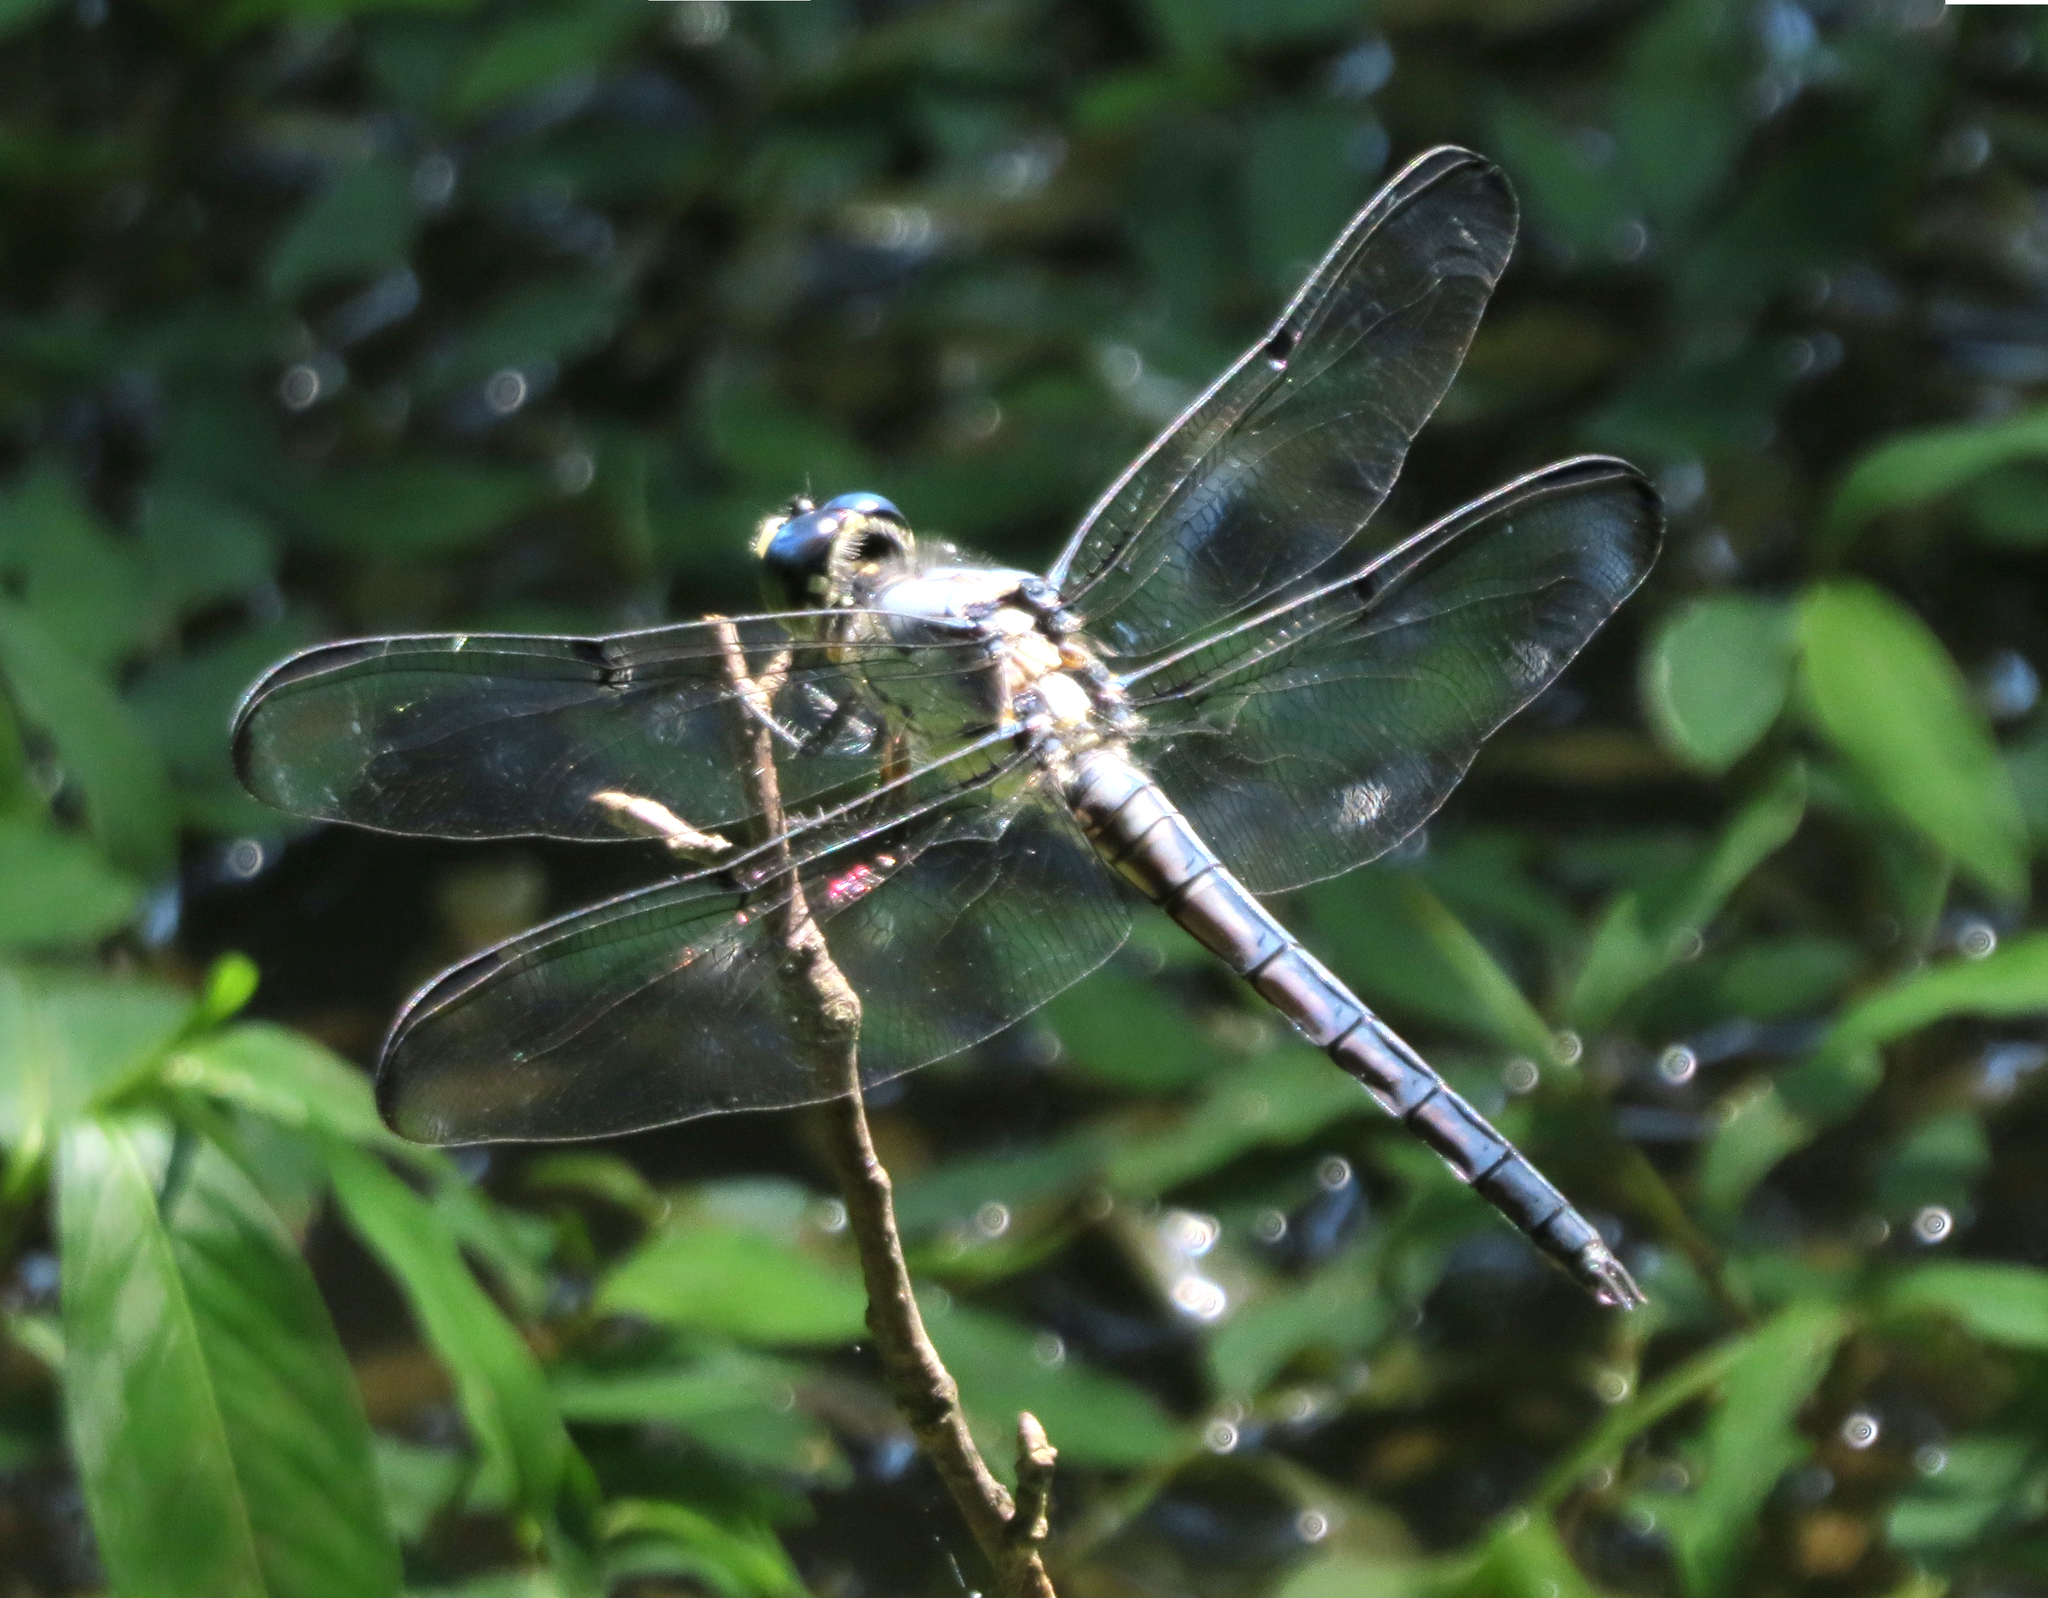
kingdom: Animalia
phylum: Arthropoda
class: Insecta
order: Odonata
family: Libellulidae
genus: Libellula
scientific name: Libellula vibrans
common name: Great blue skimmer
